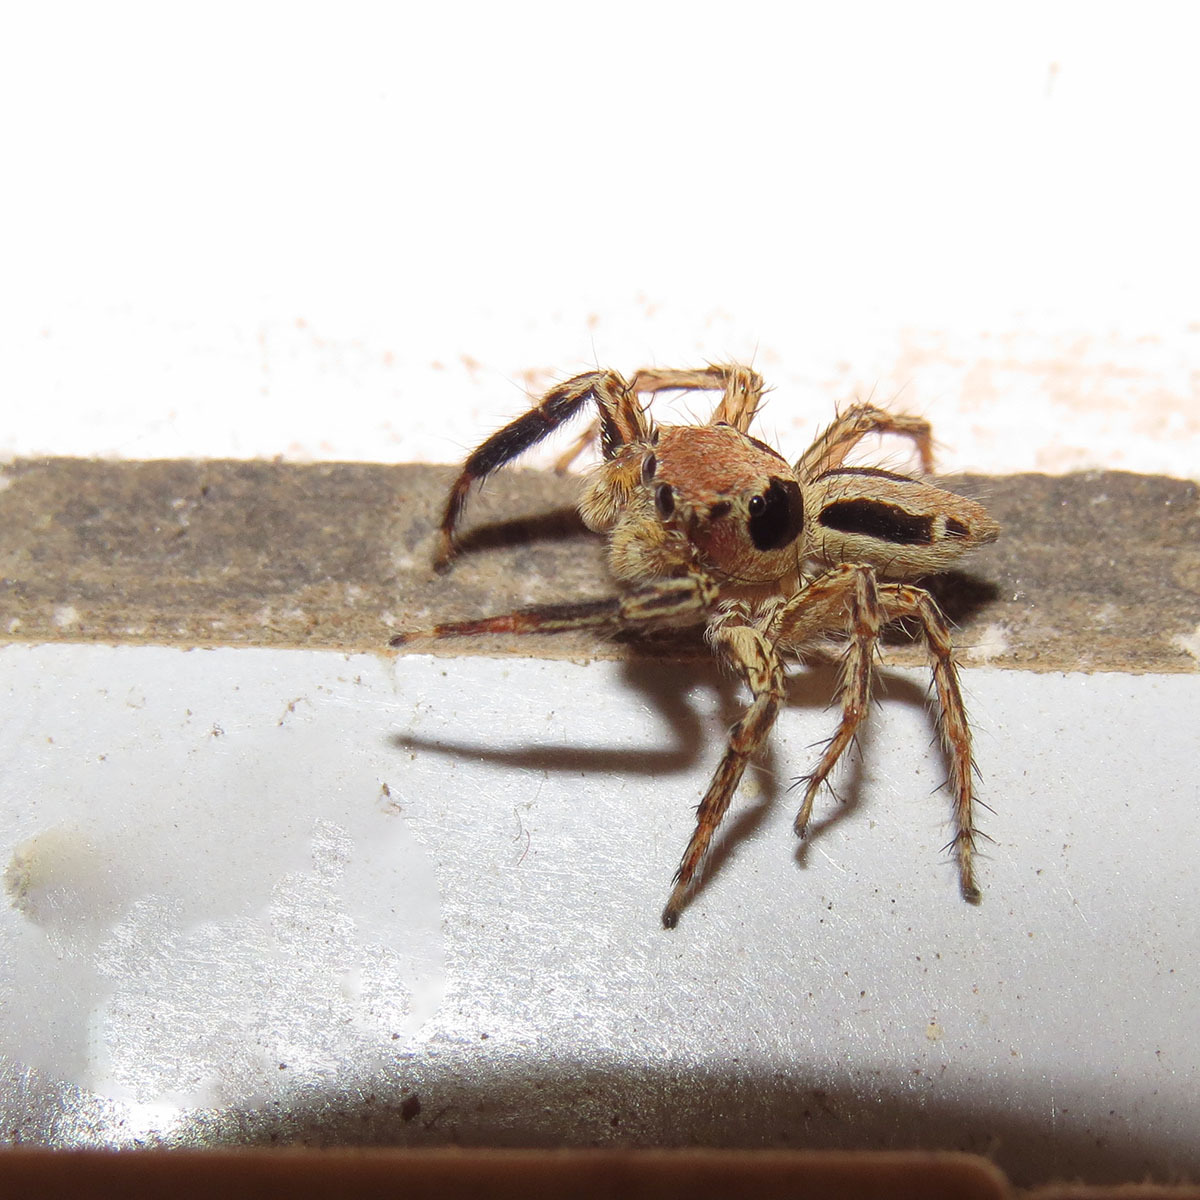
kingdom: Animalia
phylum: Arthropoda
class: Arachnida
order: Araneae
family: Salticidae
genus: Plexippus
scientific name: Plexippus petersi
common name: Jumping spider
